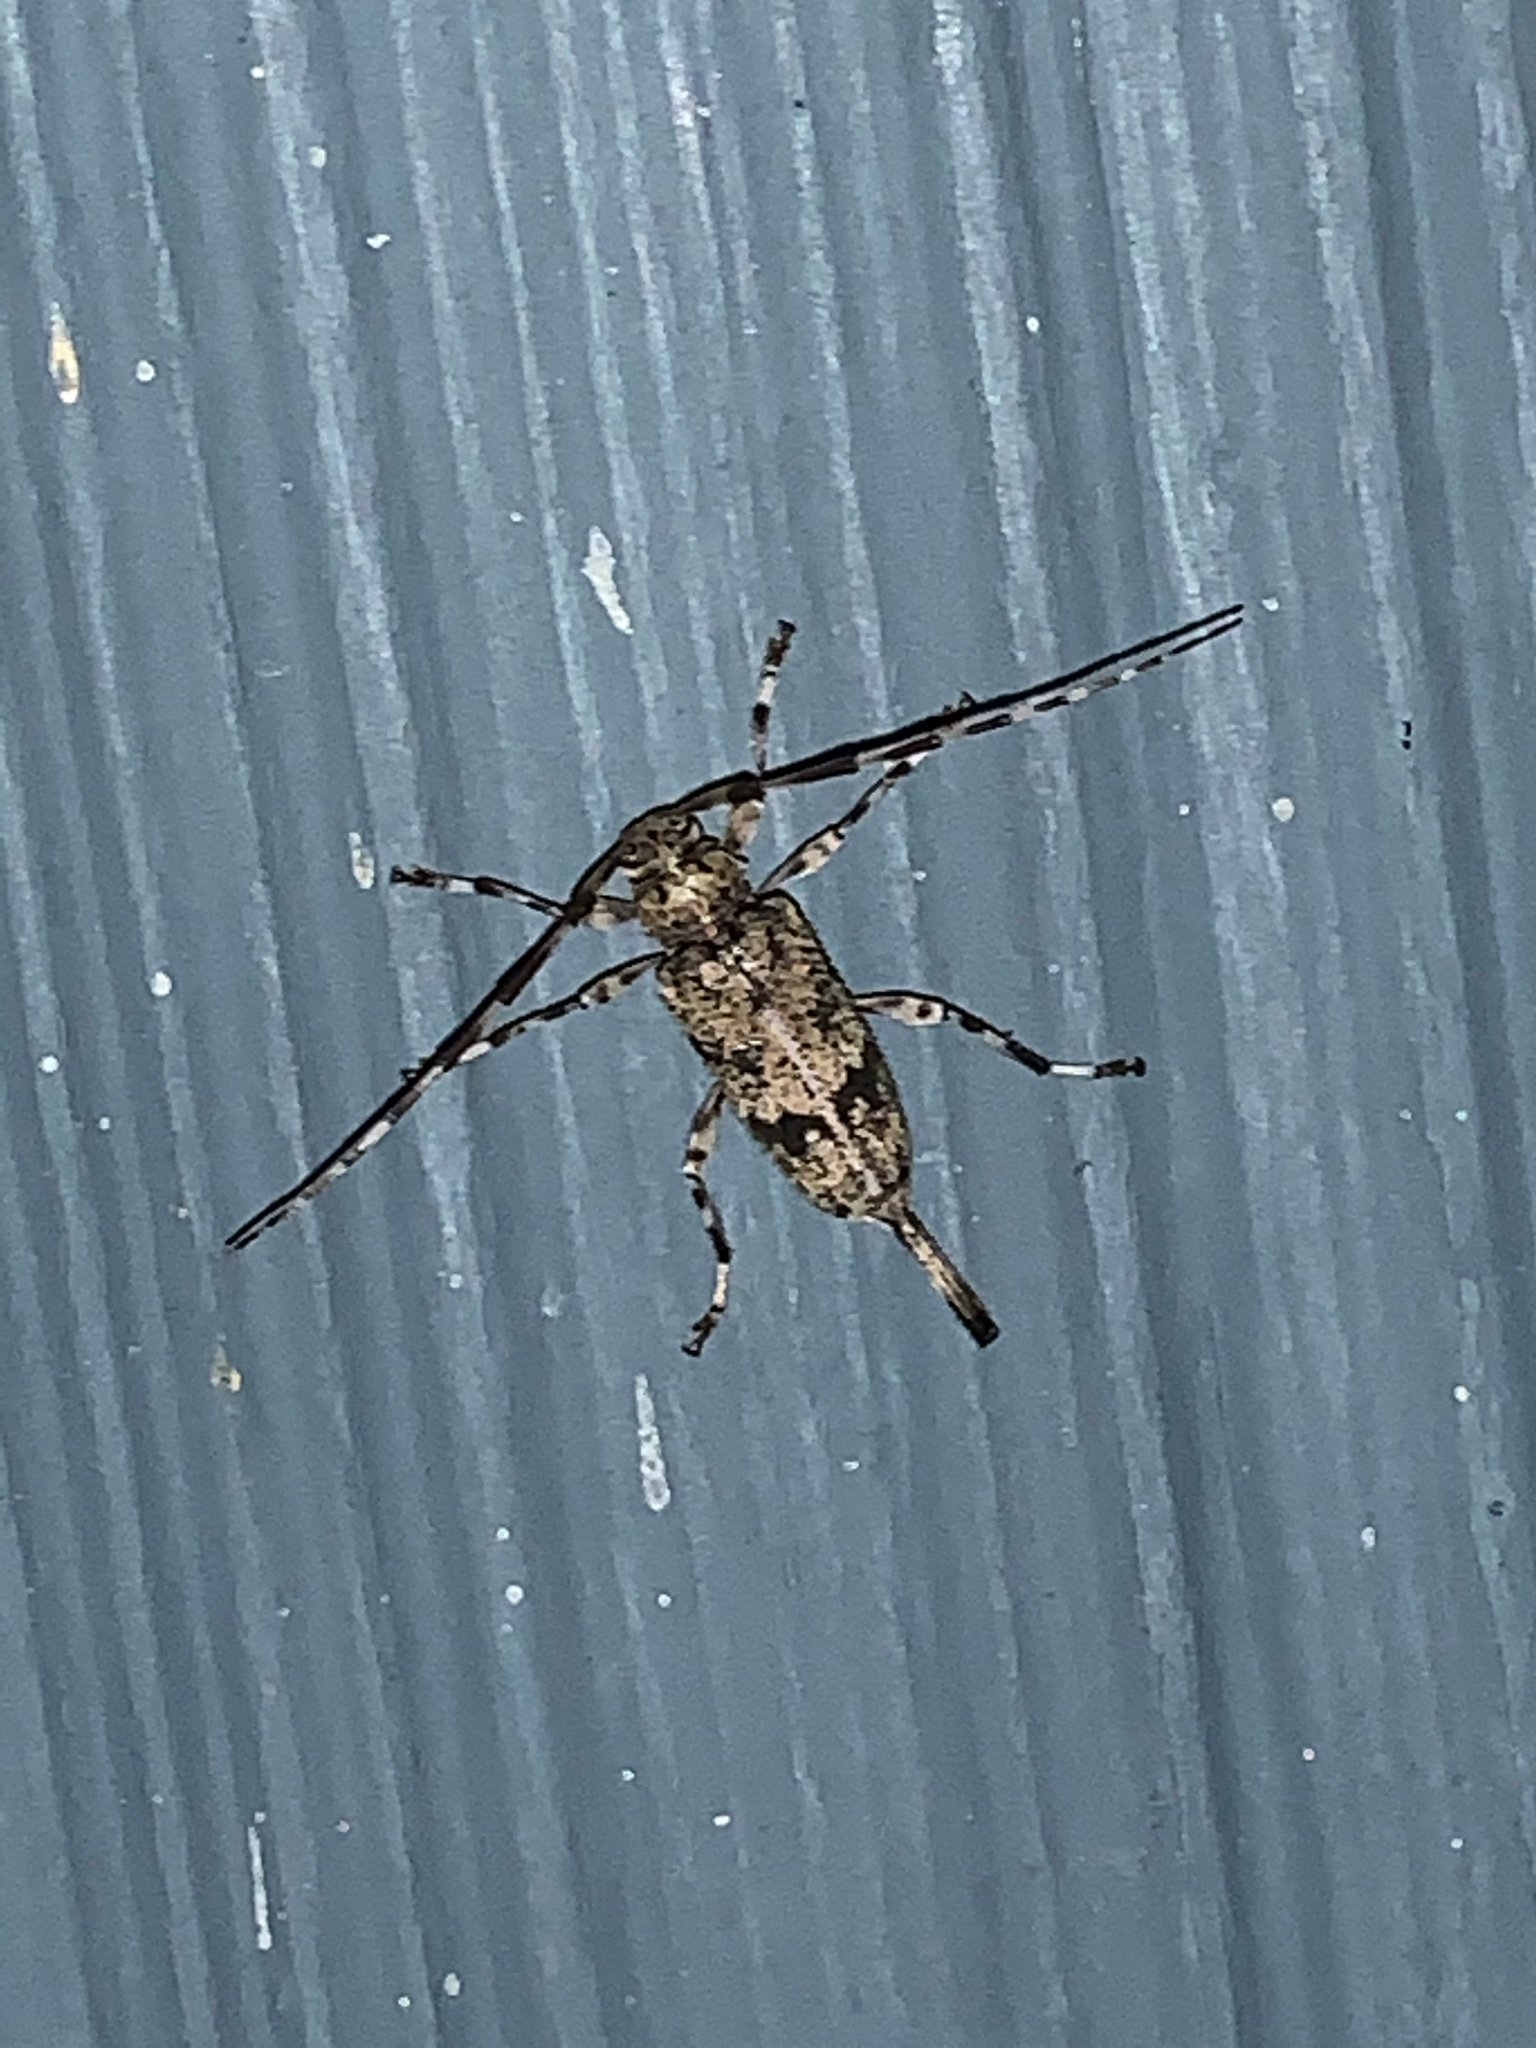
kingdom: Animalia
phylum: Arthropoda
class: Insecta
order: Coleoptera
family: Cerambycidae
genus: Graphisurus
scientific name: Graphisurus fasciatus
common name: Banded graphisurus
